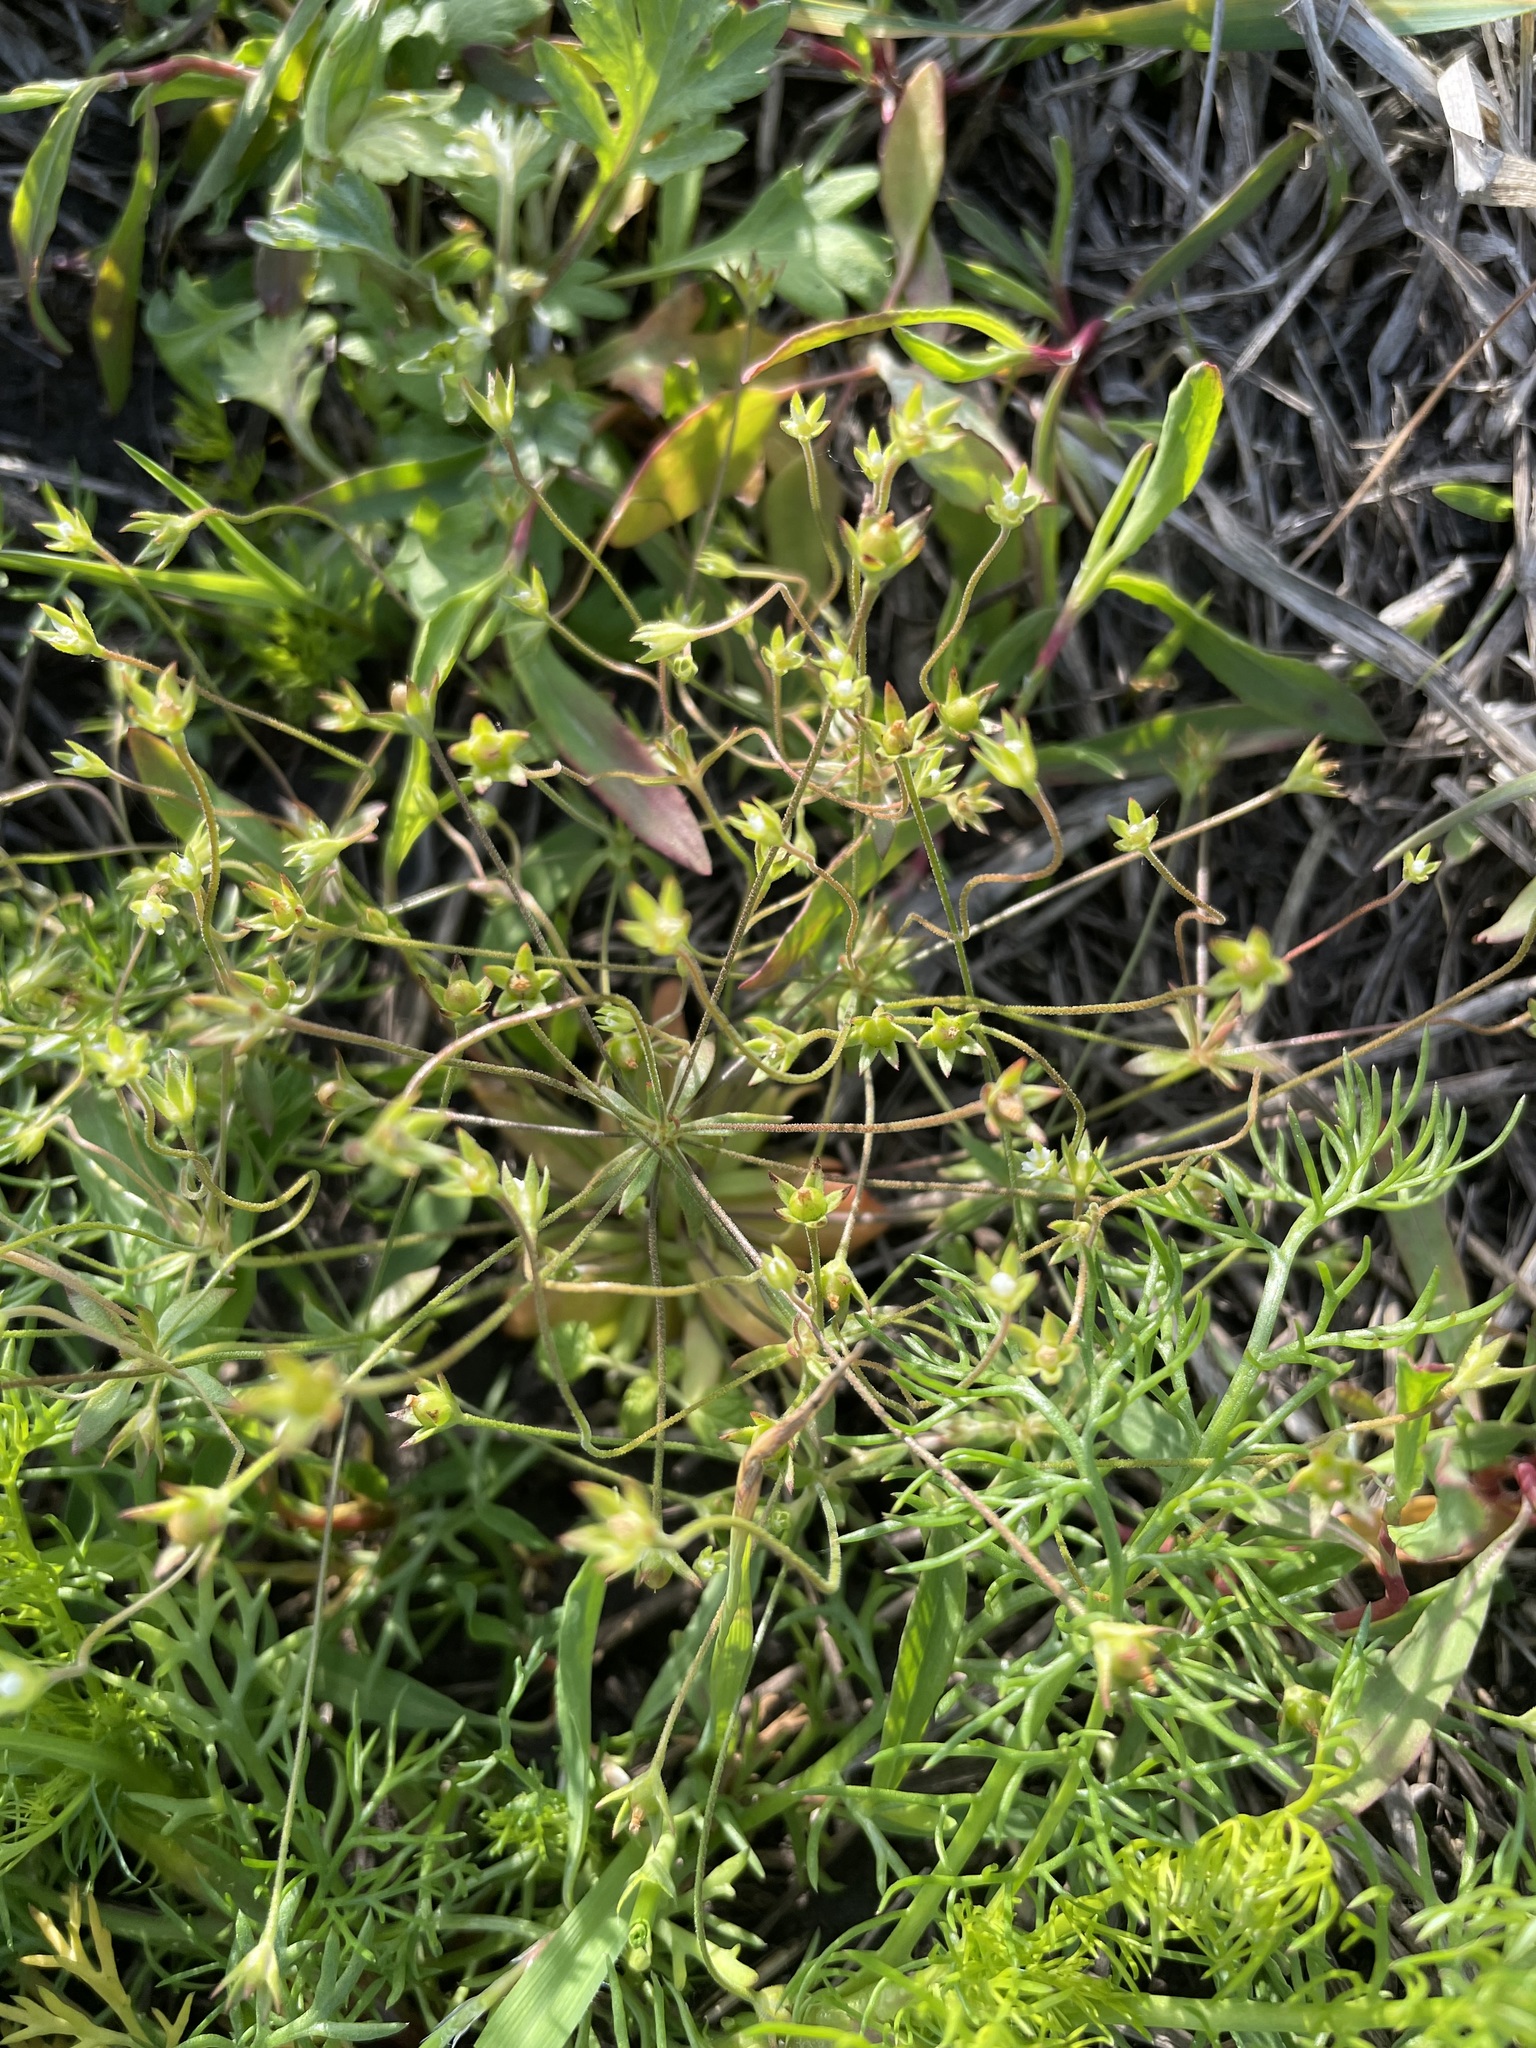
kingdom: Plantae
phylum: Tracheophyta
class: Magnoliopsida
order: Ericales
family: Primulaceae
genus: Androsace
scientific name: Androsace elongata
